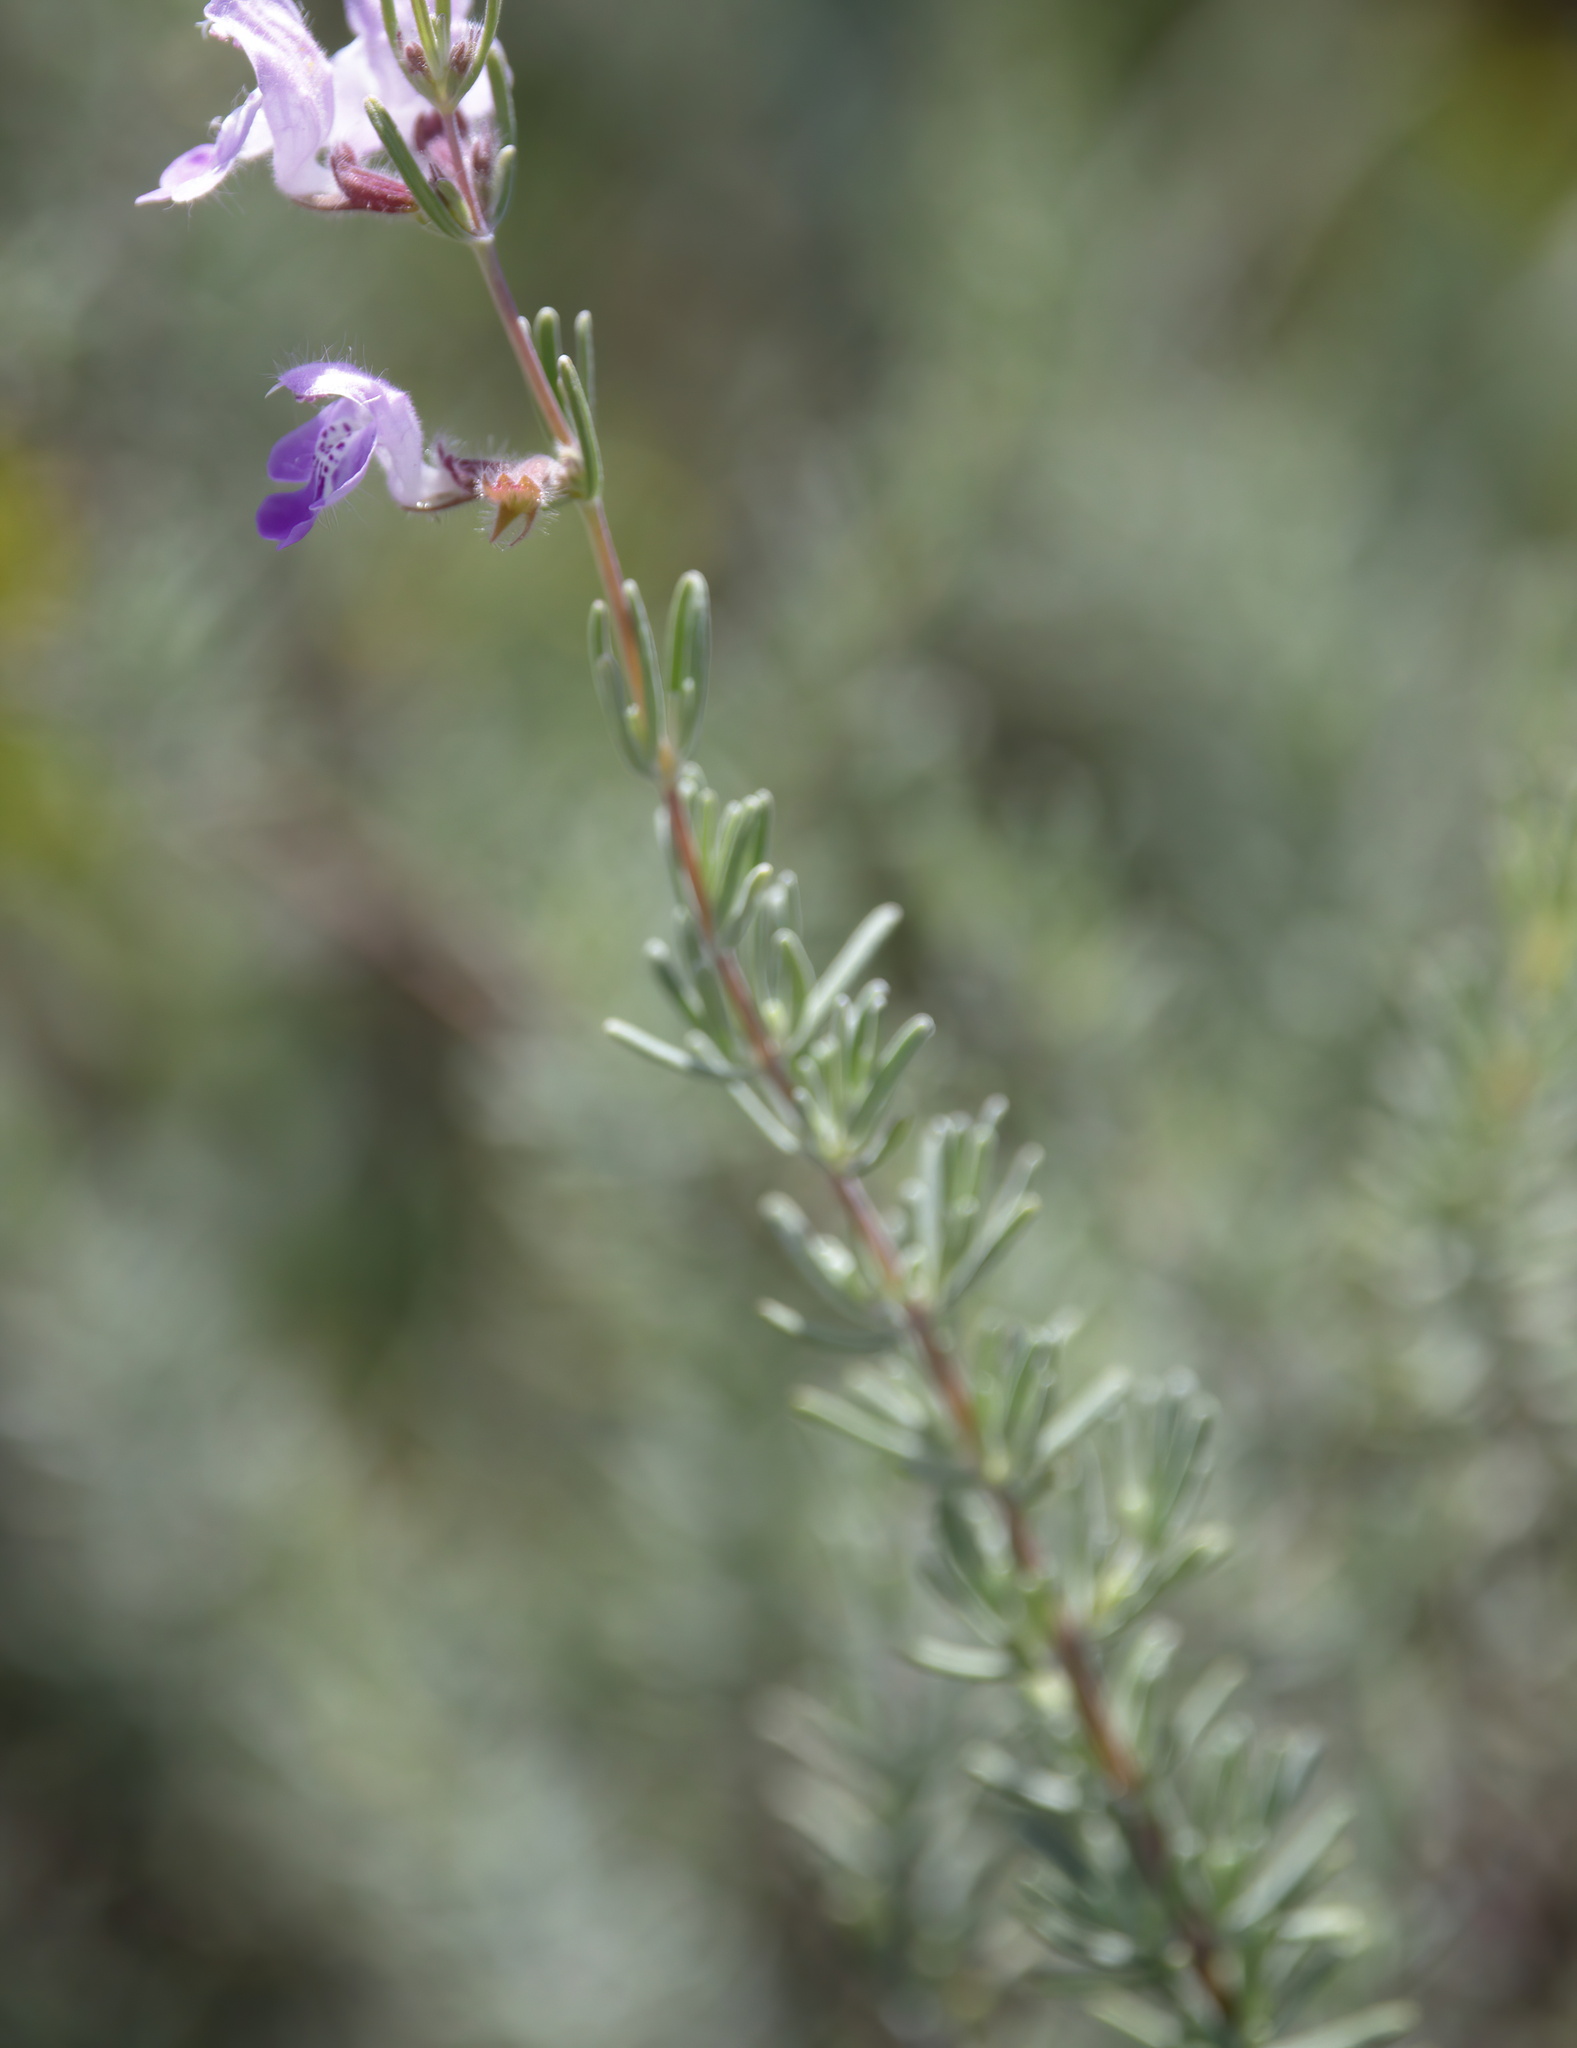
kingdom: Plantae
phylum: Tracheophyta
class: Magnoliopsida
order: Lamiales
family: Lamiaceae
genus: Conradina
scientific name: Conradina canescens
